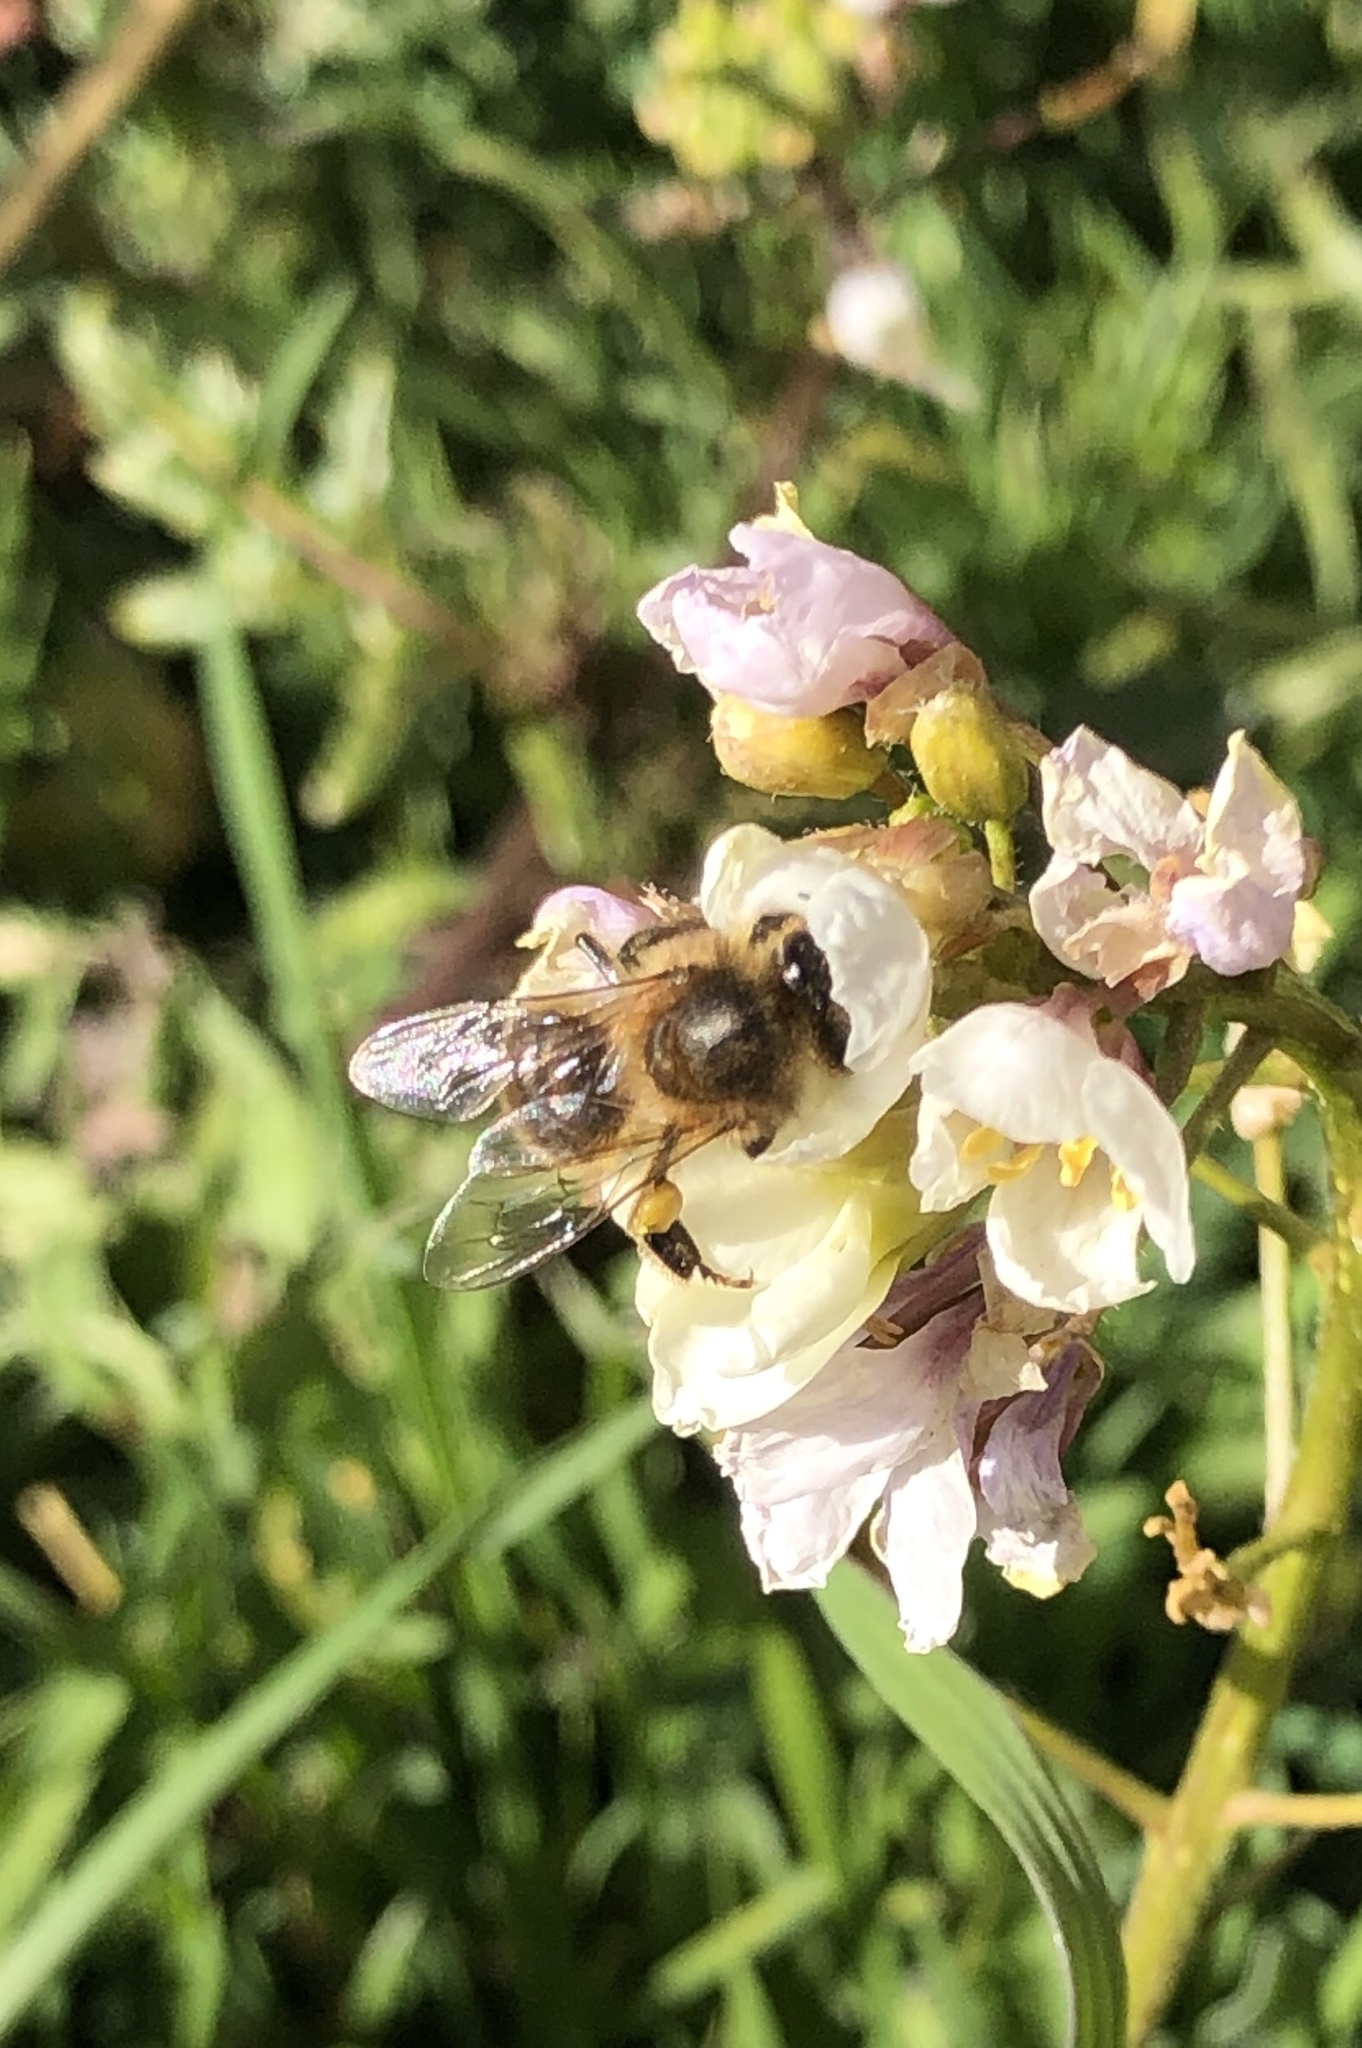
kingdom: Animalia
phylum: Arthropoda
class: Insecta
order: Hymenoptera
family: Apidae
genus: Apis
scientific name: Apis mellifera
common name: Honey bee
